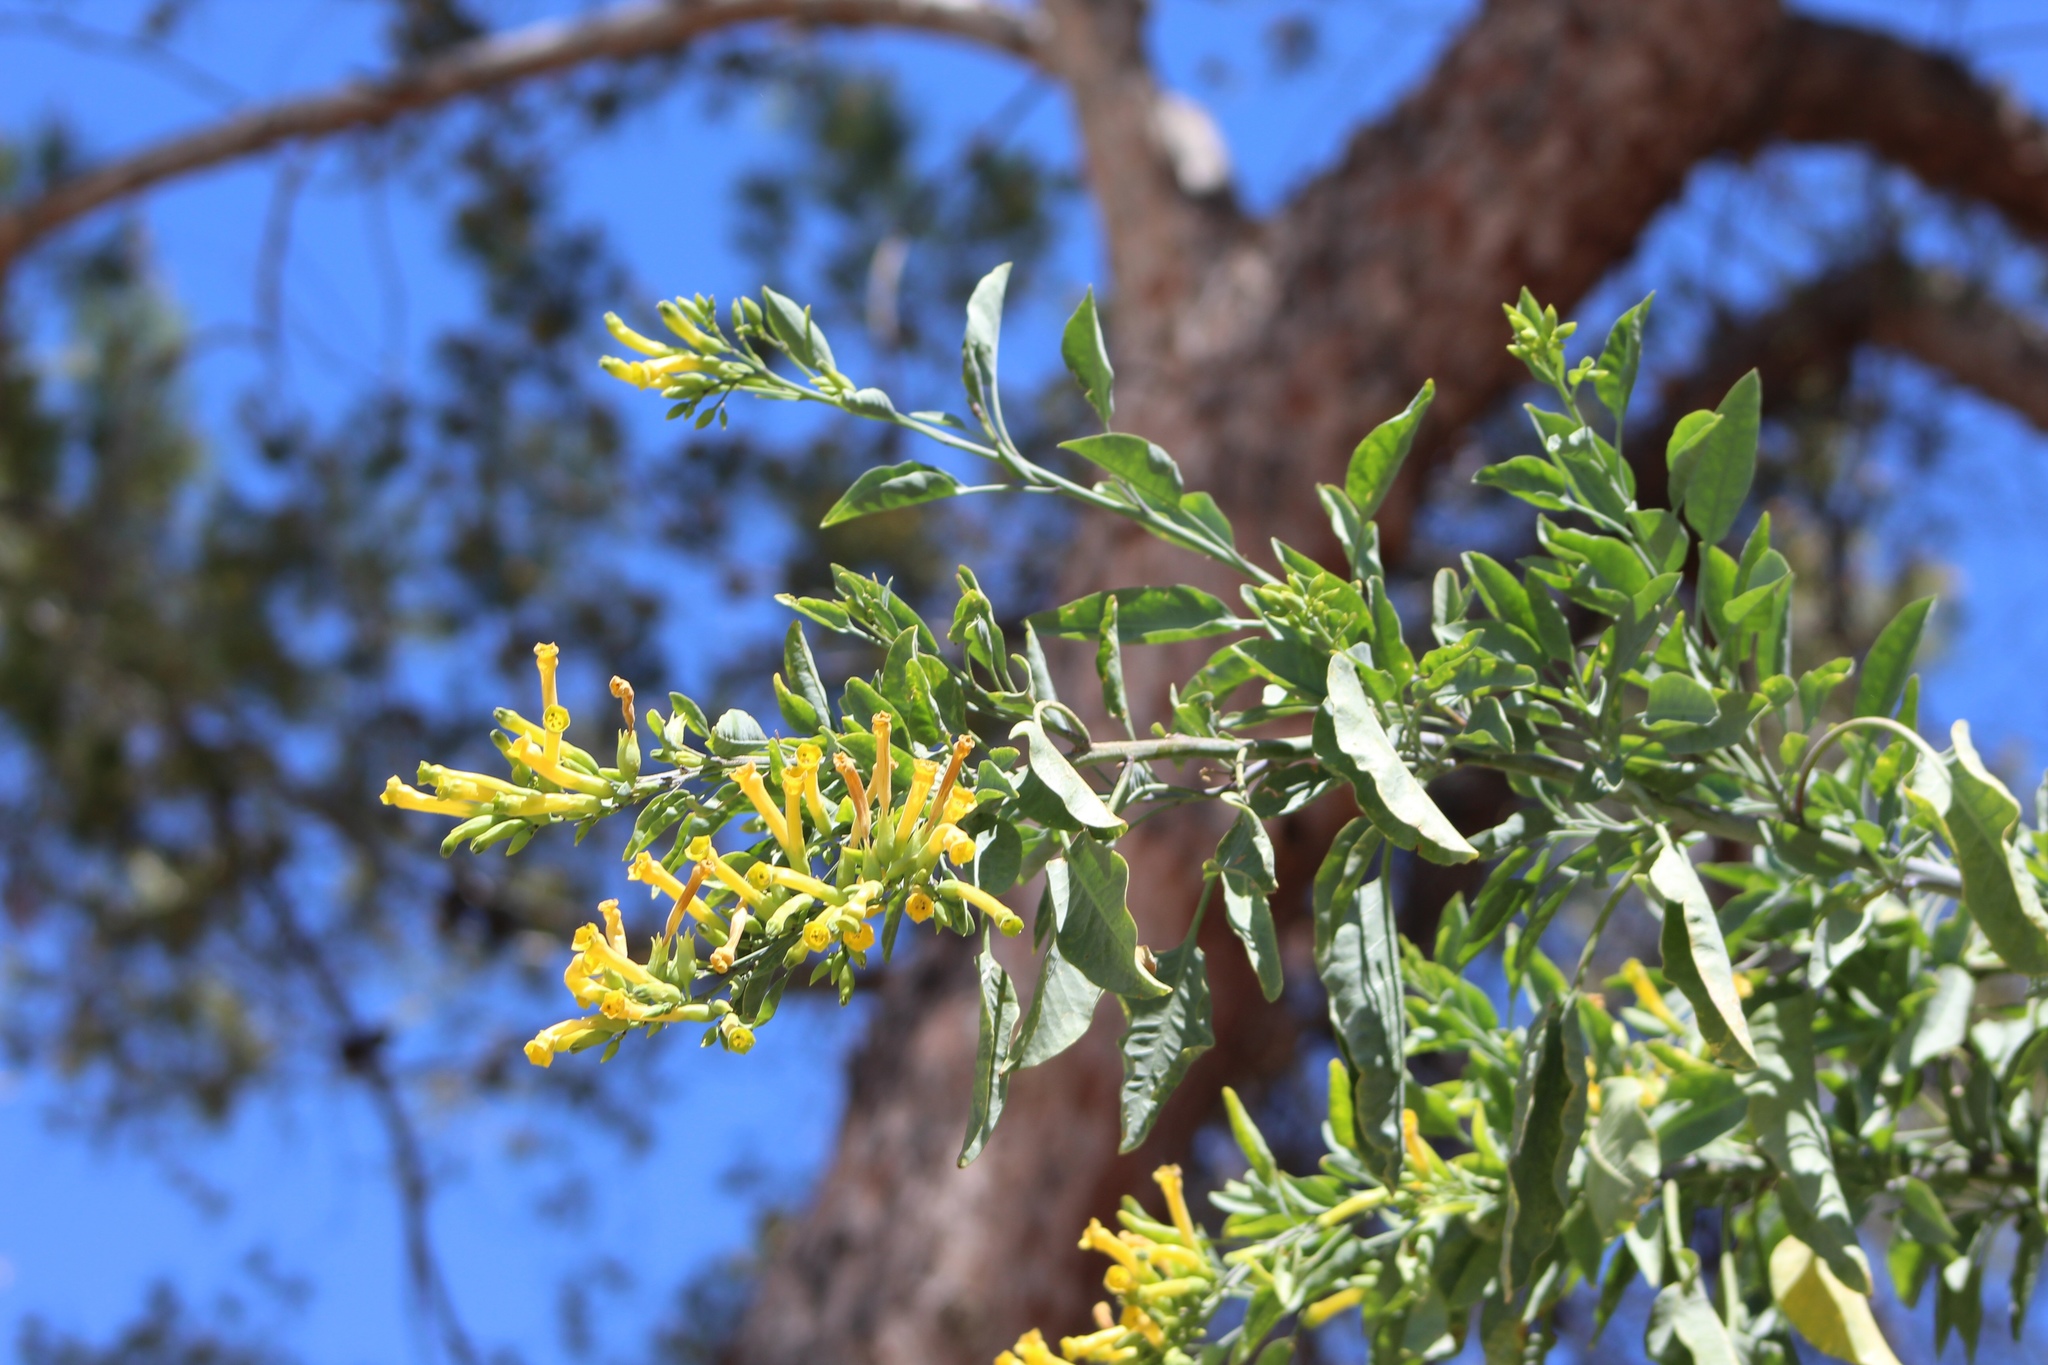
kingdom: Plantae
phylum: Tracheophyta
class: Magnoliopsida
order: Solanales
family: Solanaceae
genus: Nicotiana
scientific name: Nicotiana glauca
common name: Tree tobacco
